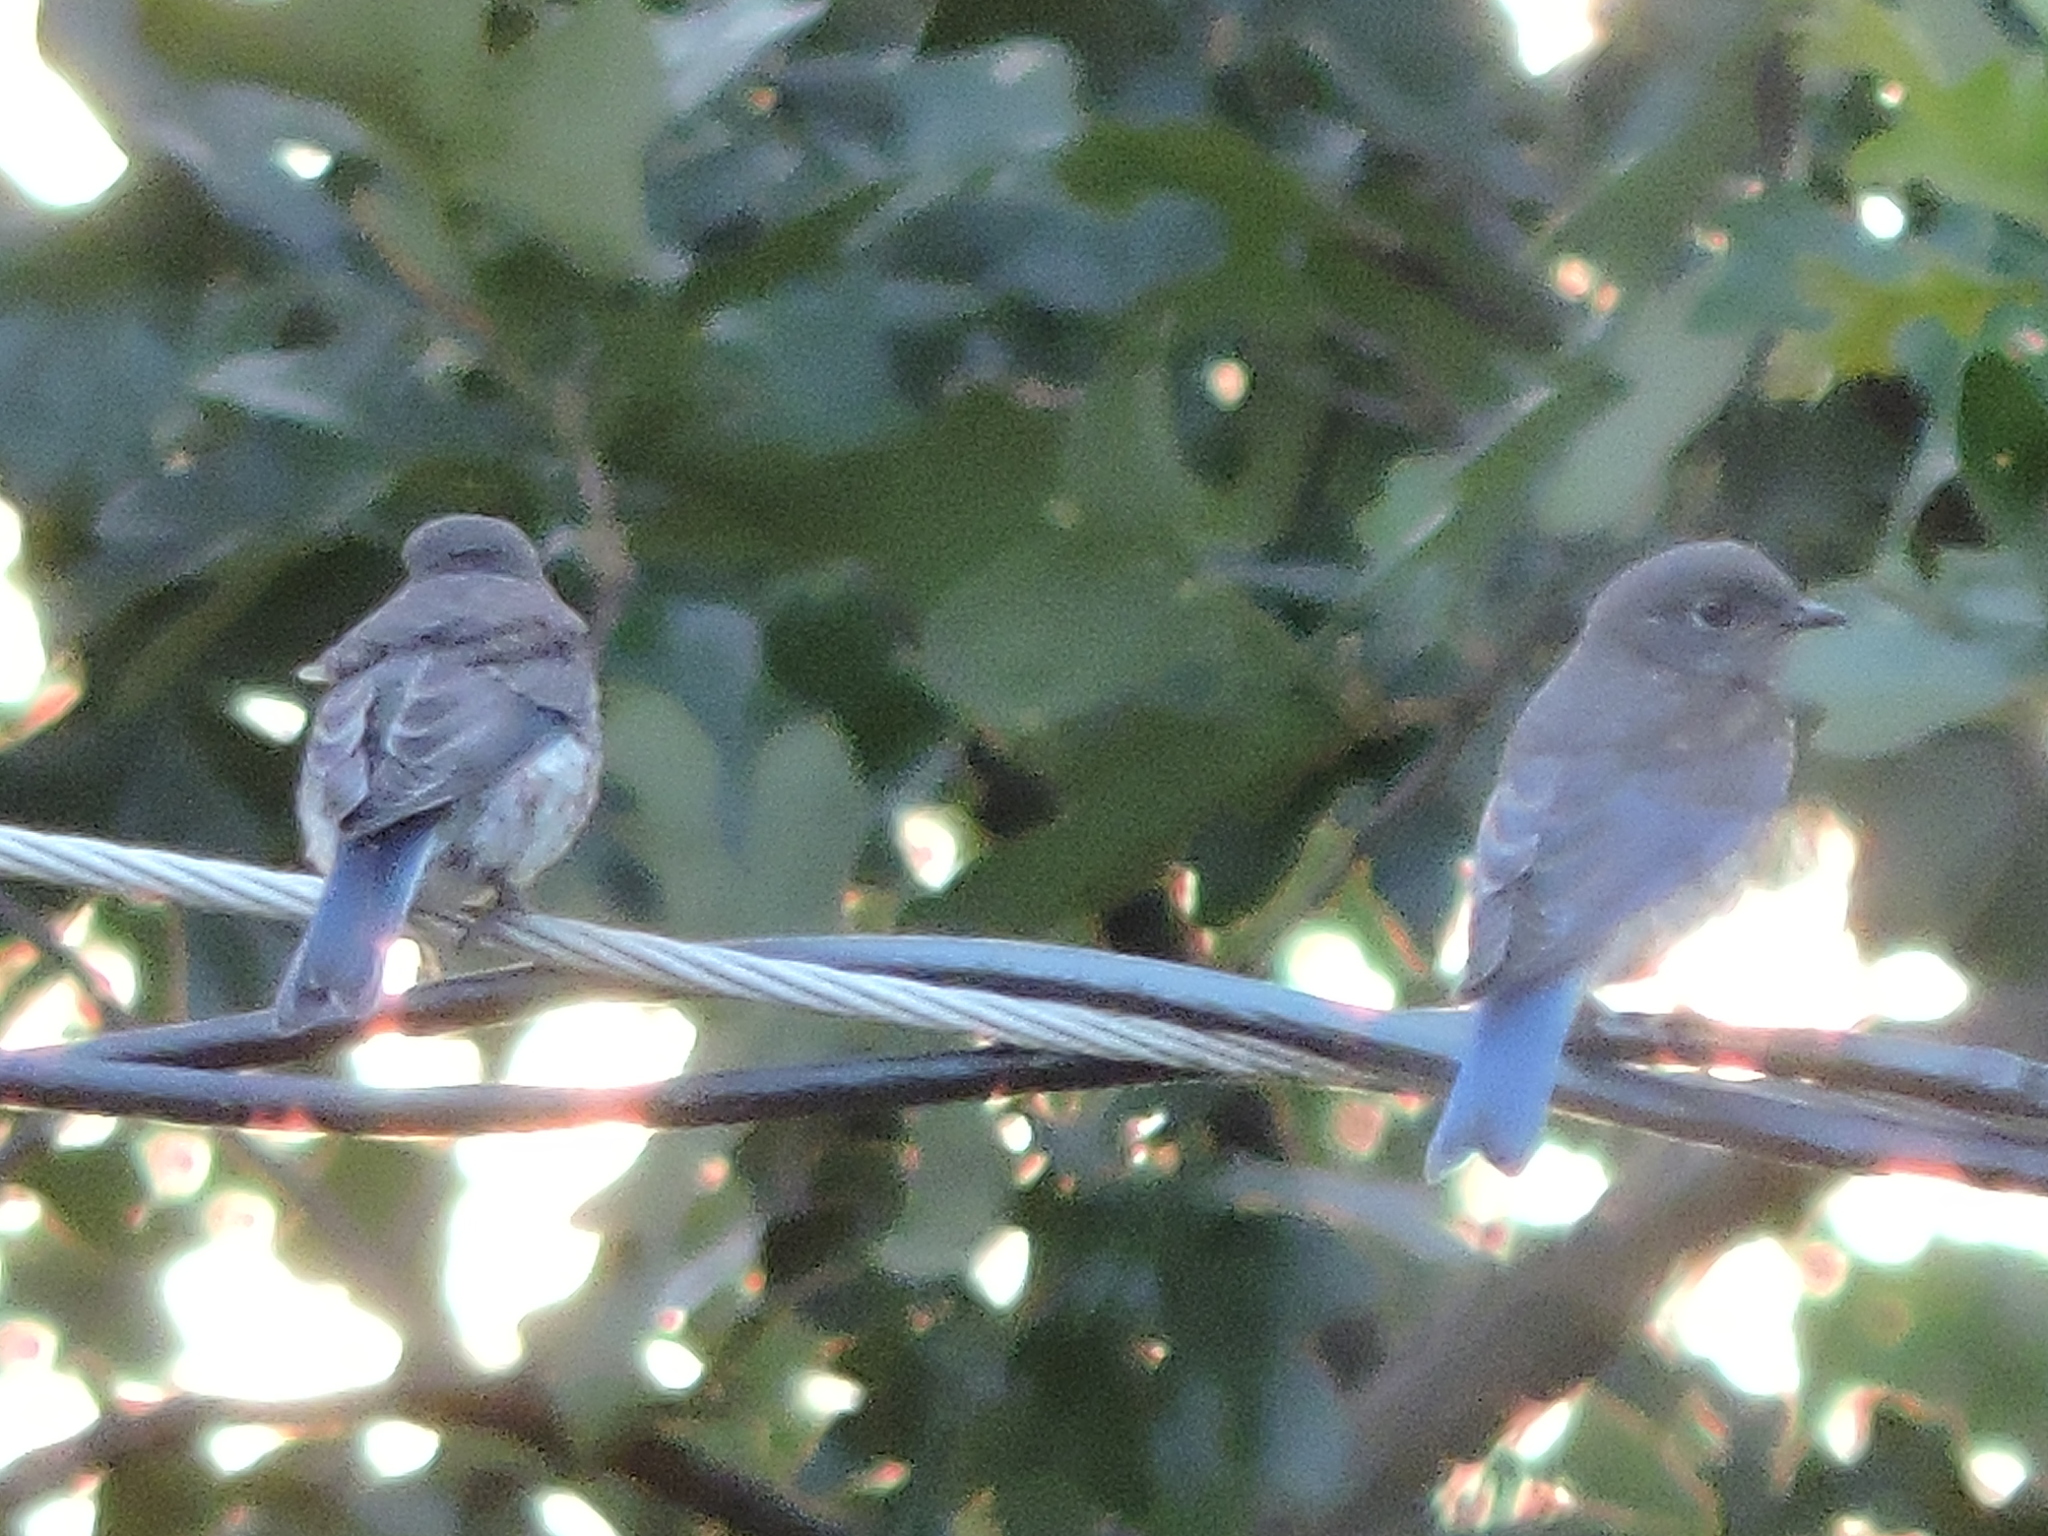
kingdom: Animalia
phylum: Chordata
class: Aves
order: Passeriformes
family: Turdidae
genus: Sialia
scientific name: Sialia sialis
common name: Eastern bluebird
